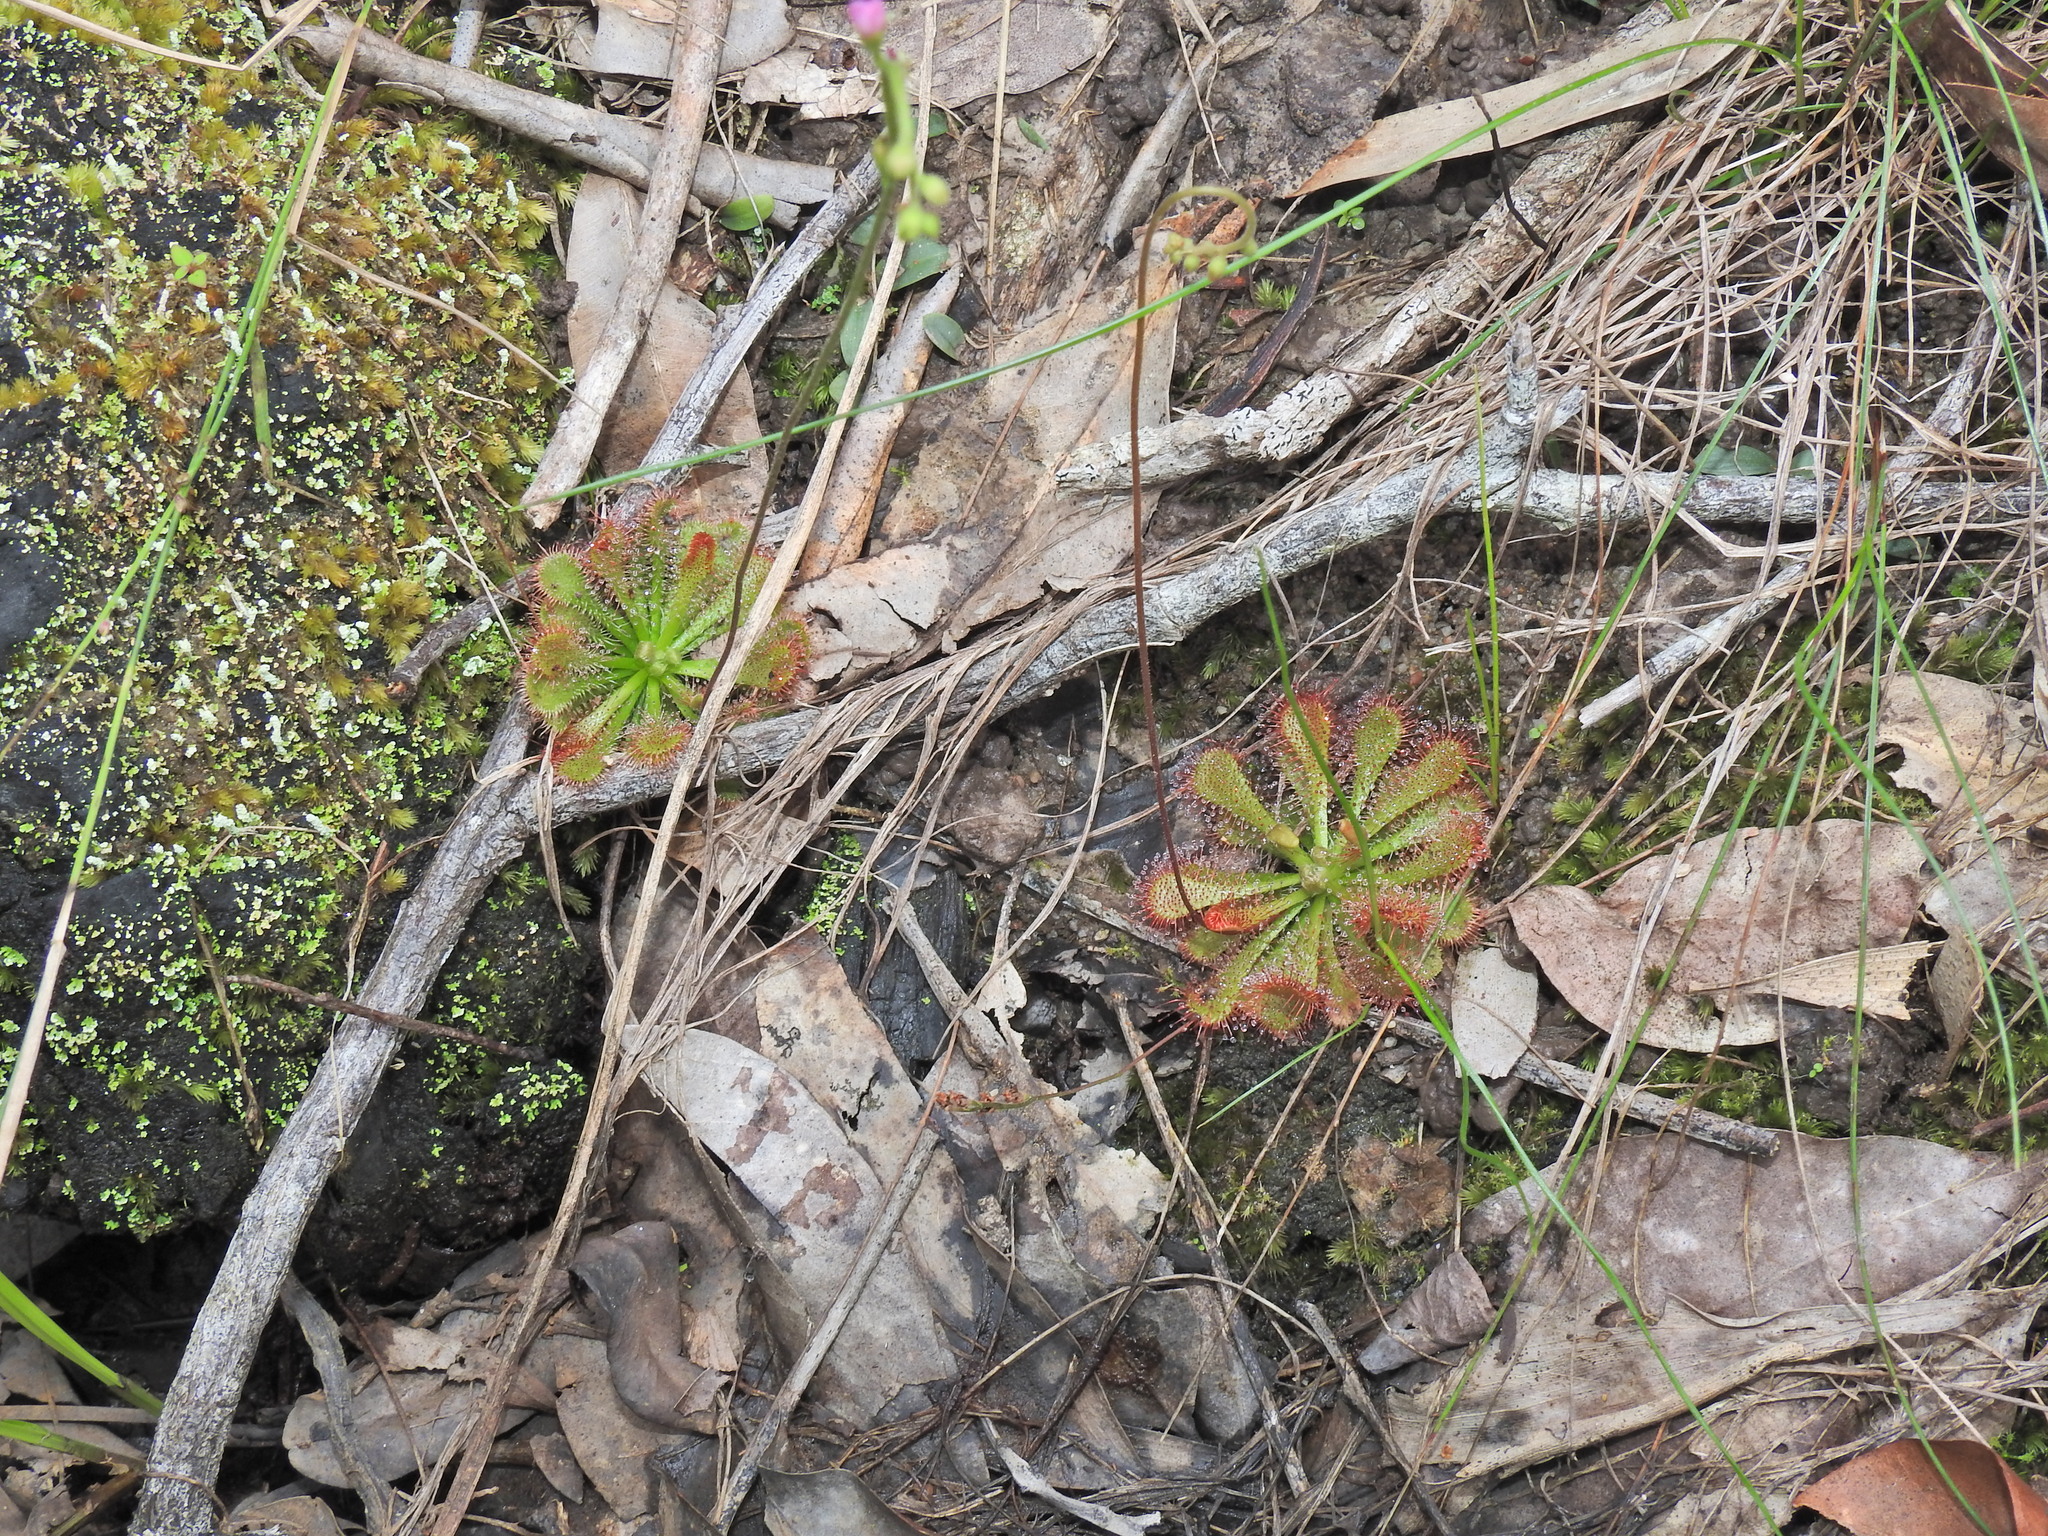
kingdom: Plantae
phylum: Tracheophyta
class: Magnoliopsida
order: Caryophyllales
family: Droseraceae
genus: Drosera
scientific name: Drosera spatulata
